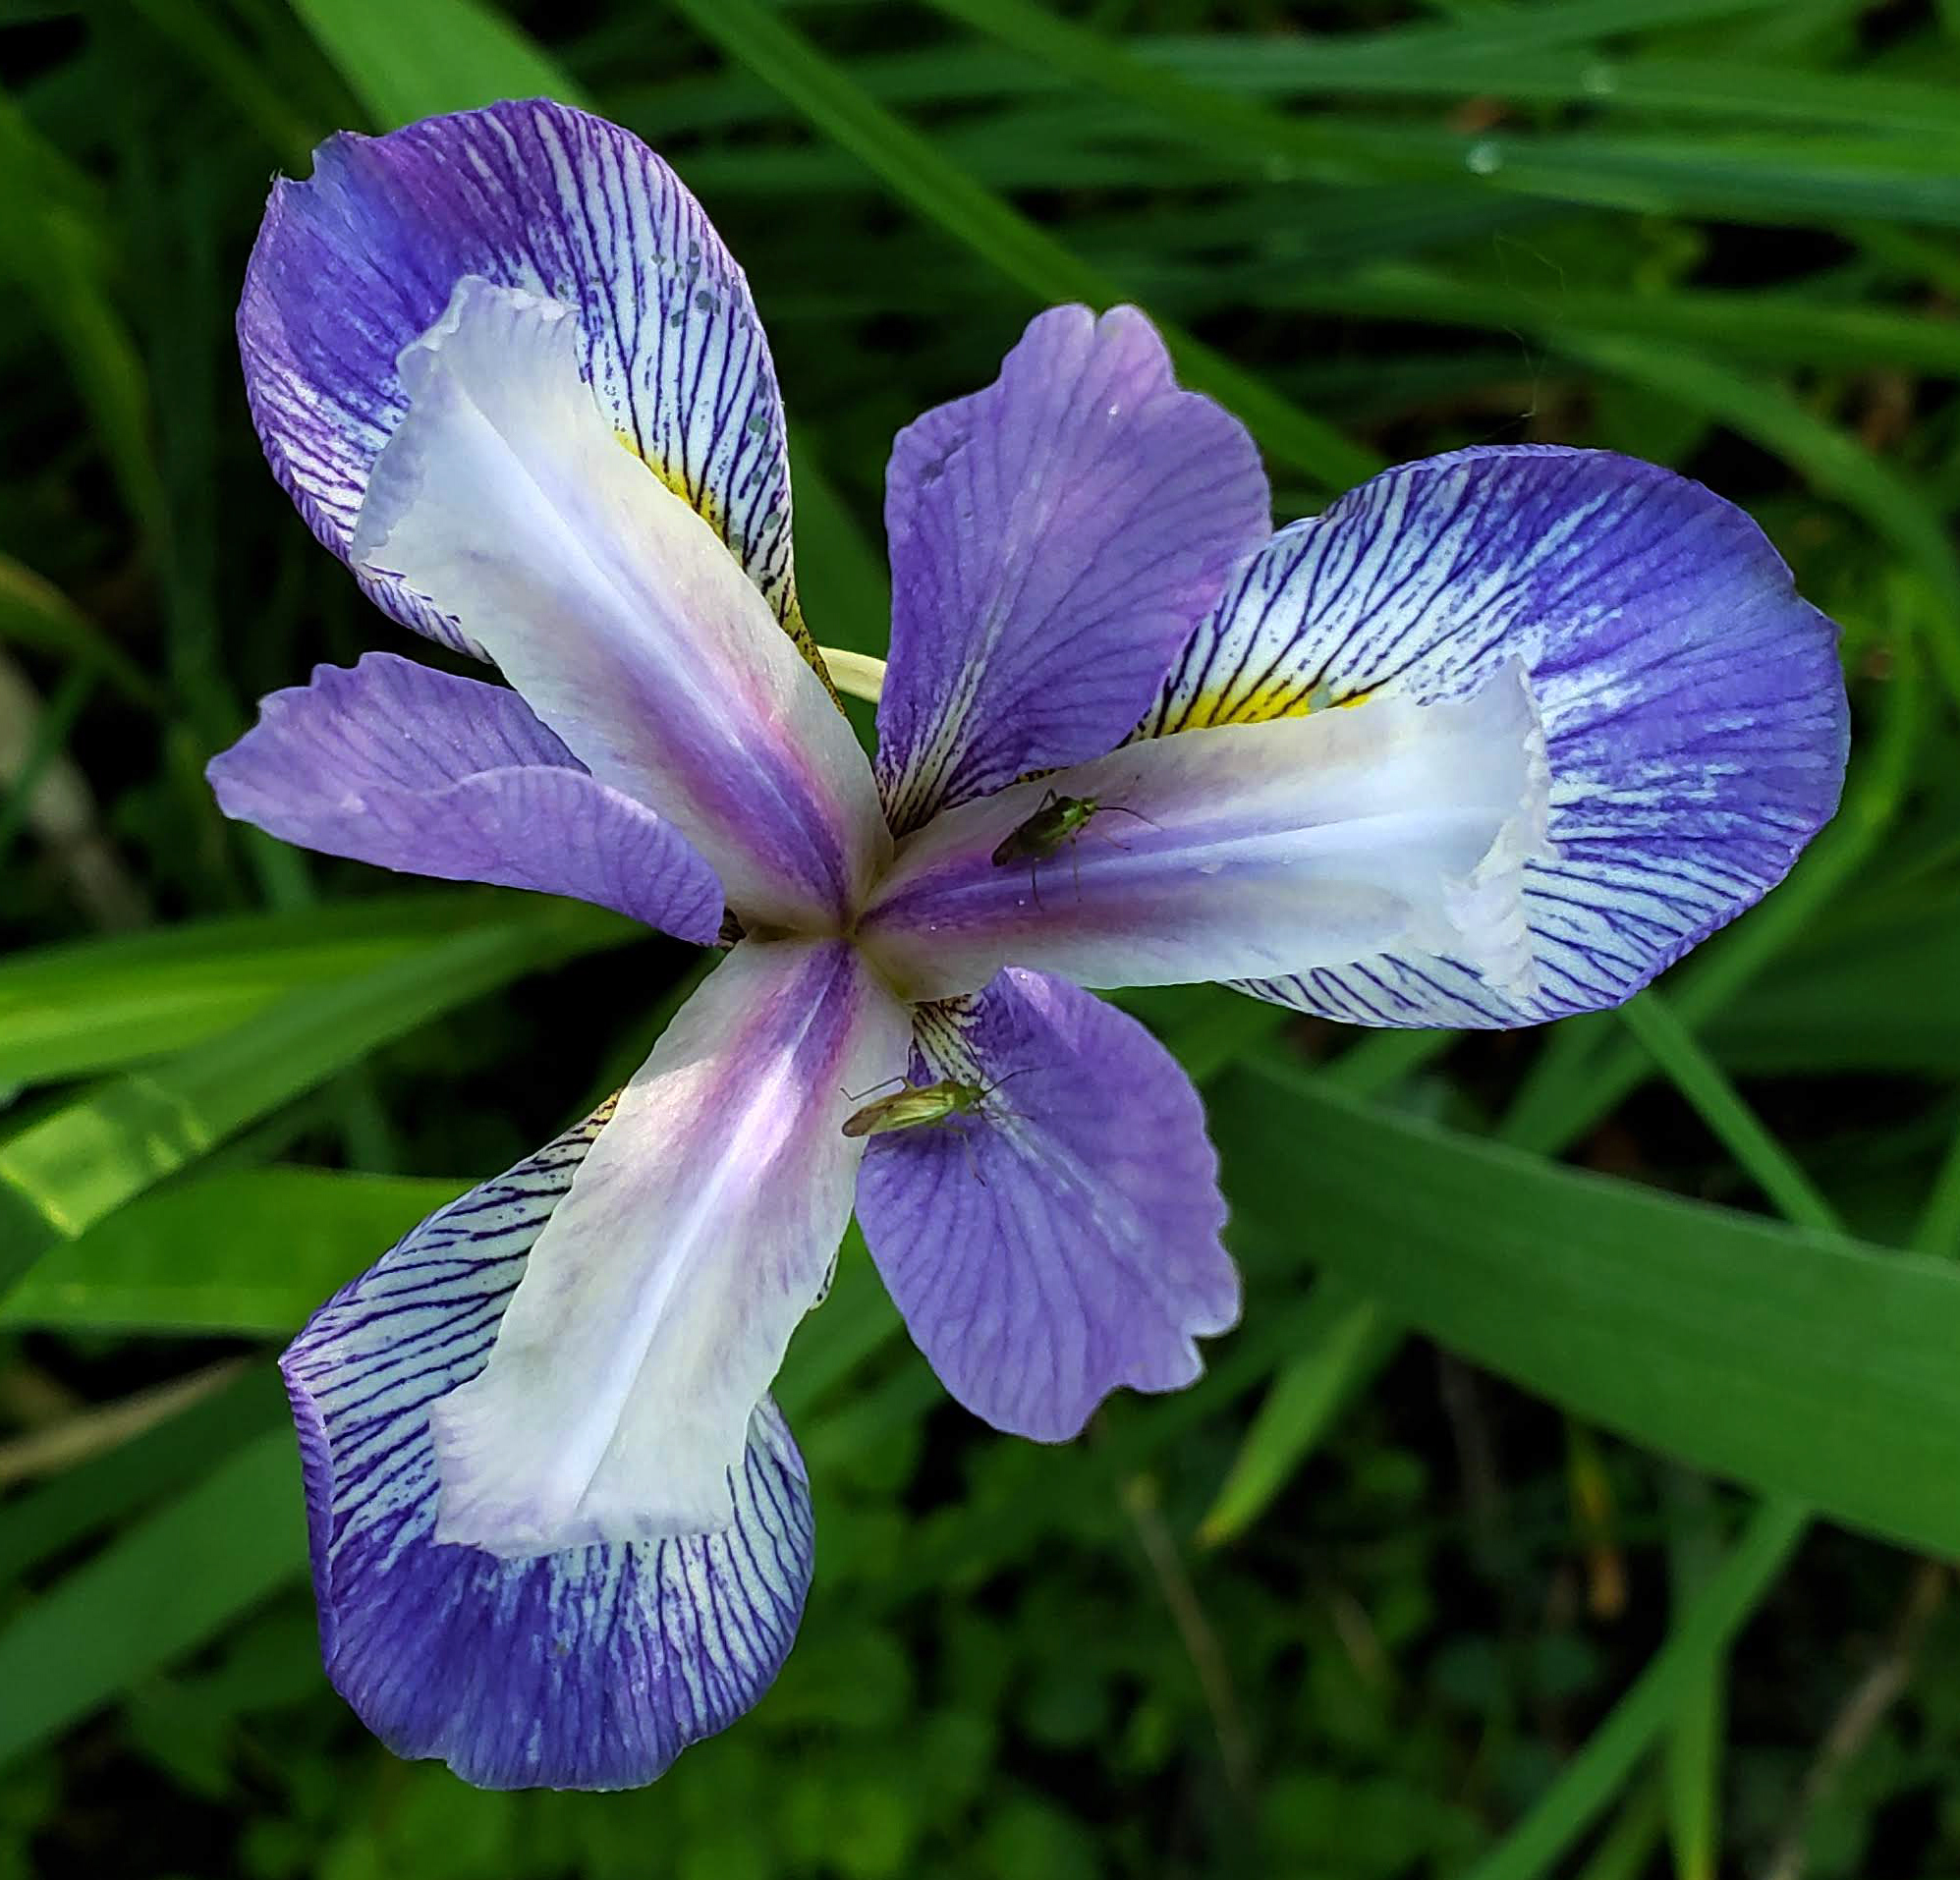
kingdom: Plantae
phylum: Tracheophyta
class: Liliopsida
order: Asparagales
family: Iridaceae
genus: Iris
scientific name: Iris virginica
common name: Southern blue flag
